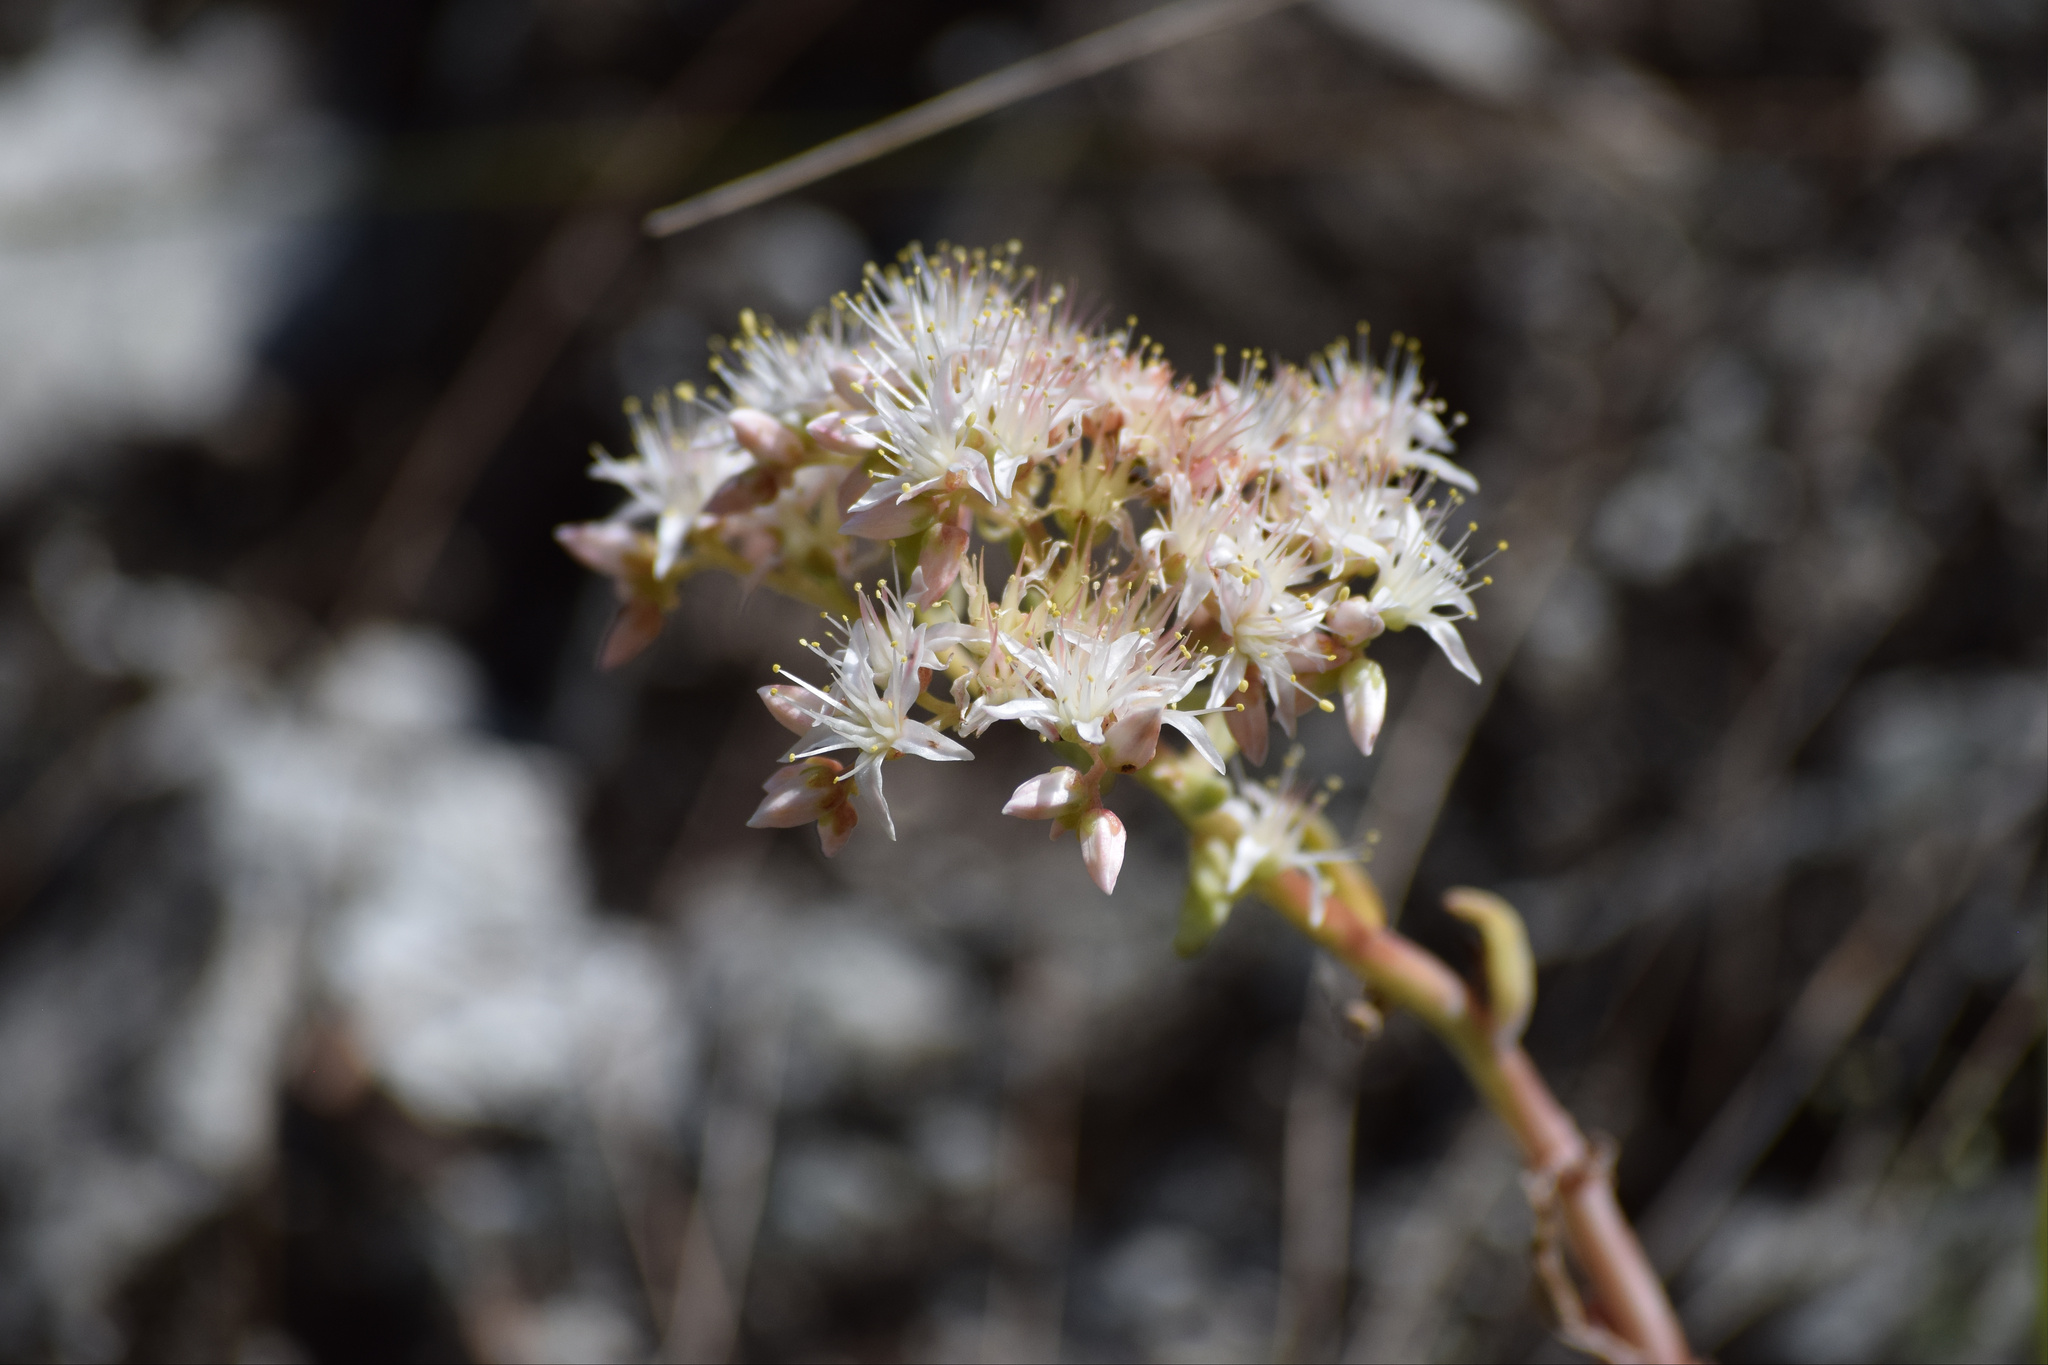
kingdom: Plantae
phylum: Tracheophyta
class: Magnoliopsida
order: Saxifragales
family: Crassulaceae
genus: Dudleya
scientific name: Dudleya densiflora
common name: San gabriel mountains dudleya
